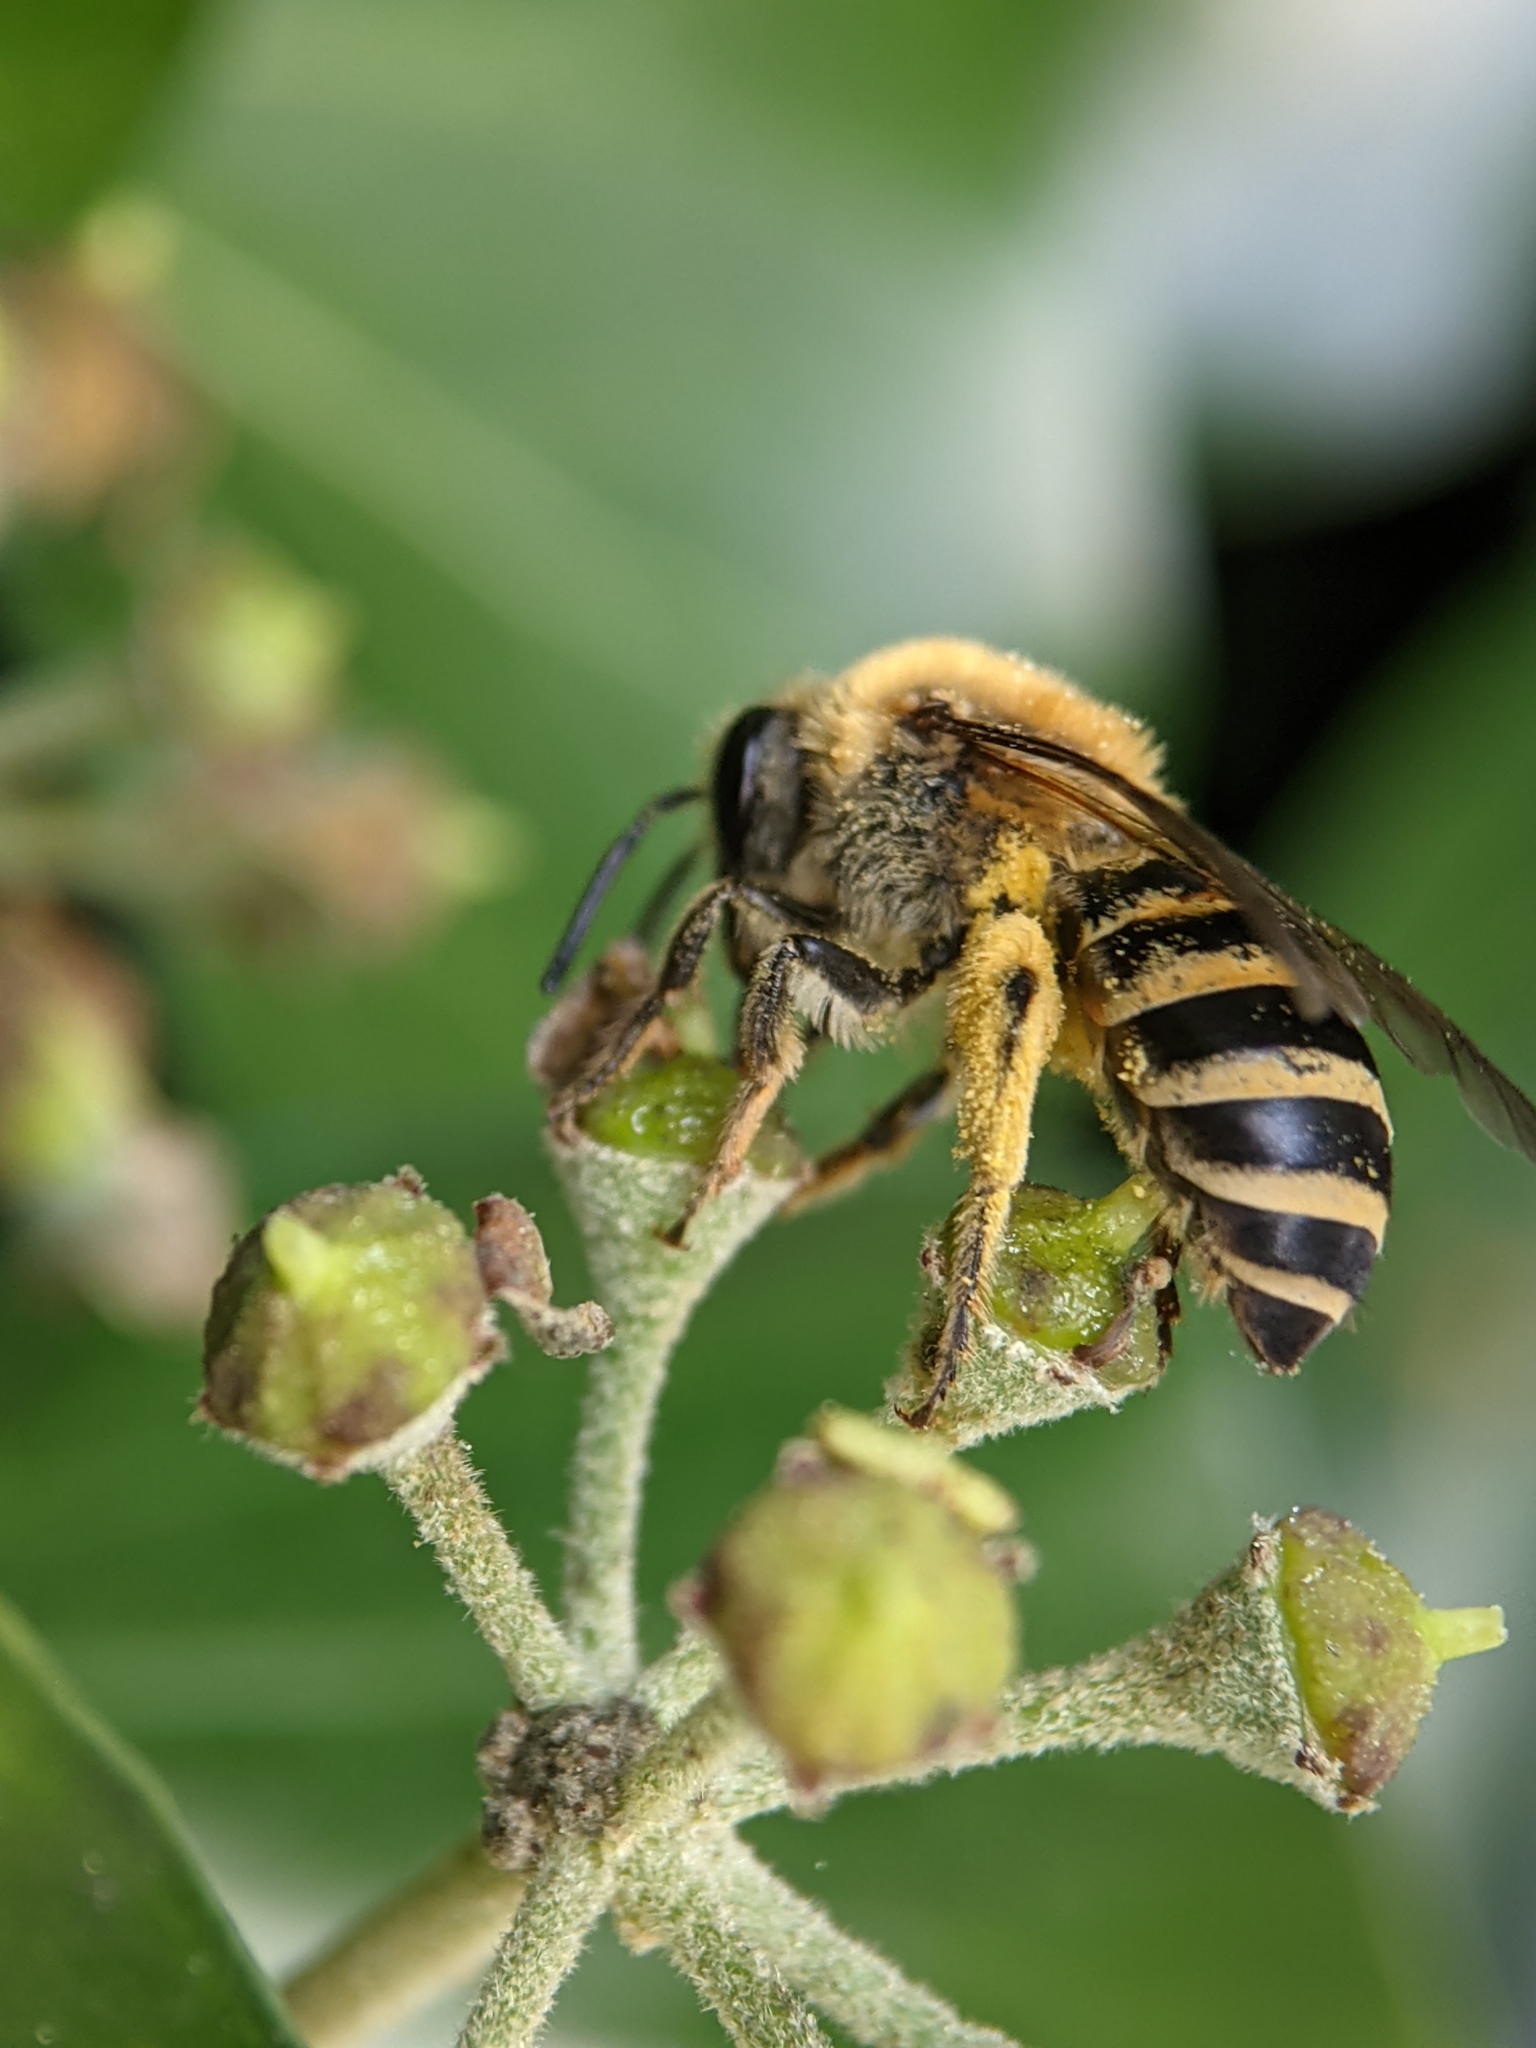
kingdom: Animalia
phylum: Arthropoda
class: Insecta
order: Hymenoptera
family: Colletidae
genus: Colletes
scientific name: Colletes hederae
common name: Ivy bee
